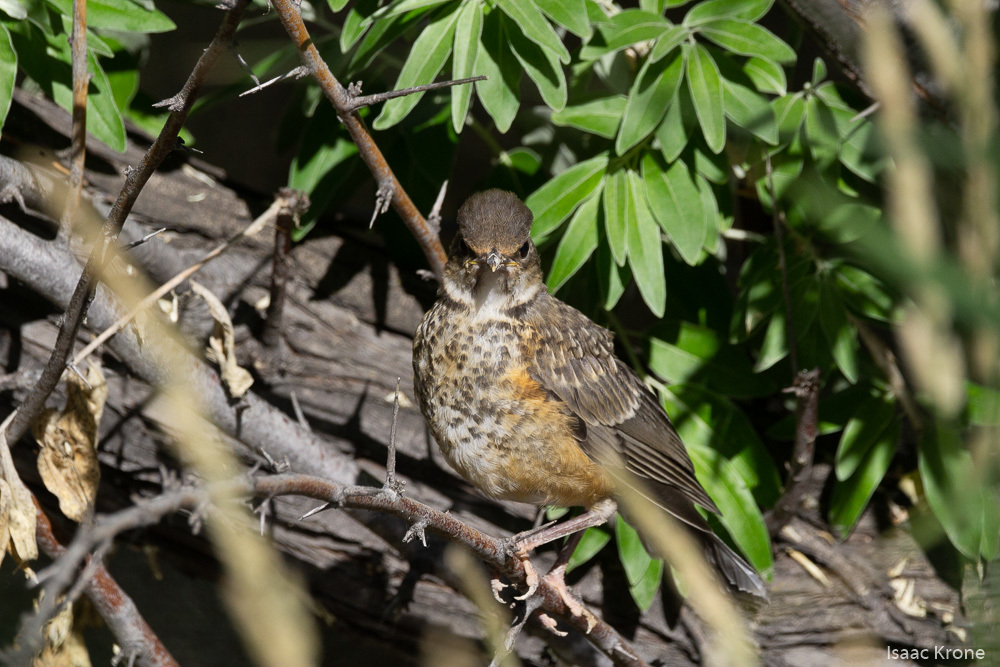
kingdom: Animalia
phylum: Chordata
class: Aves
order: Passeriformes
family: Turdidae
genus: Turdus
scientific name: Turdus migratorius
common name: American robin
